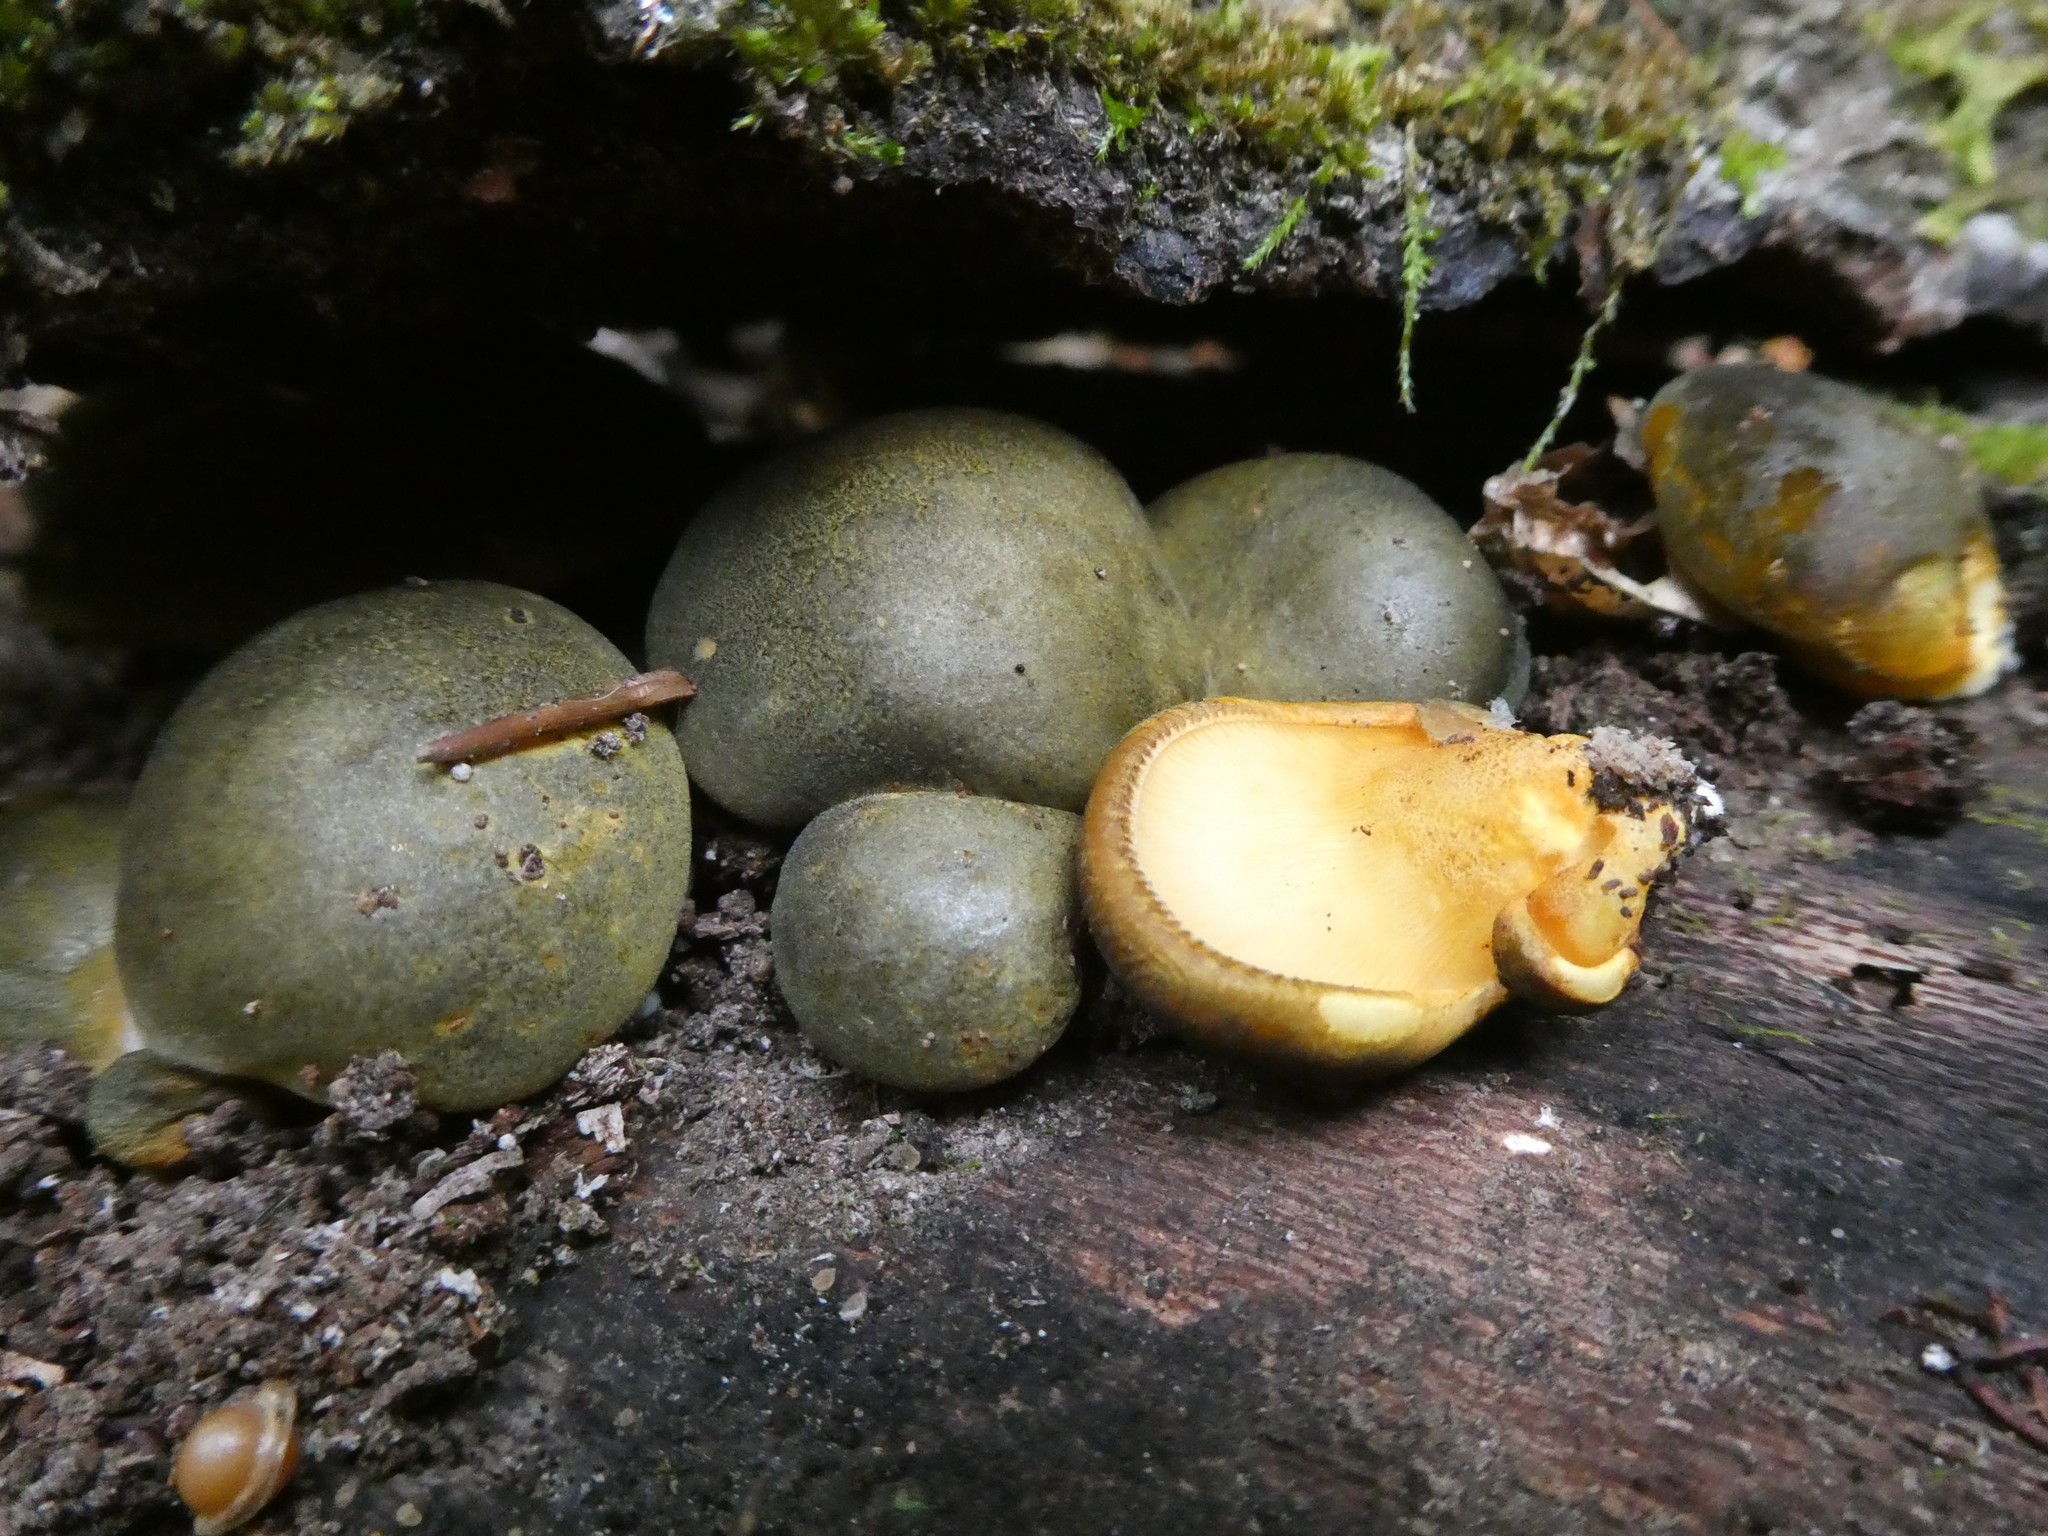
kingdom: Fungi
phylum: Basidiomycota
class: Agaricomycetes
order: Agaricales
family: Sarcomyxaceae
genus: Sarcomyxa
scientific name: Sarcomyxa serotina
